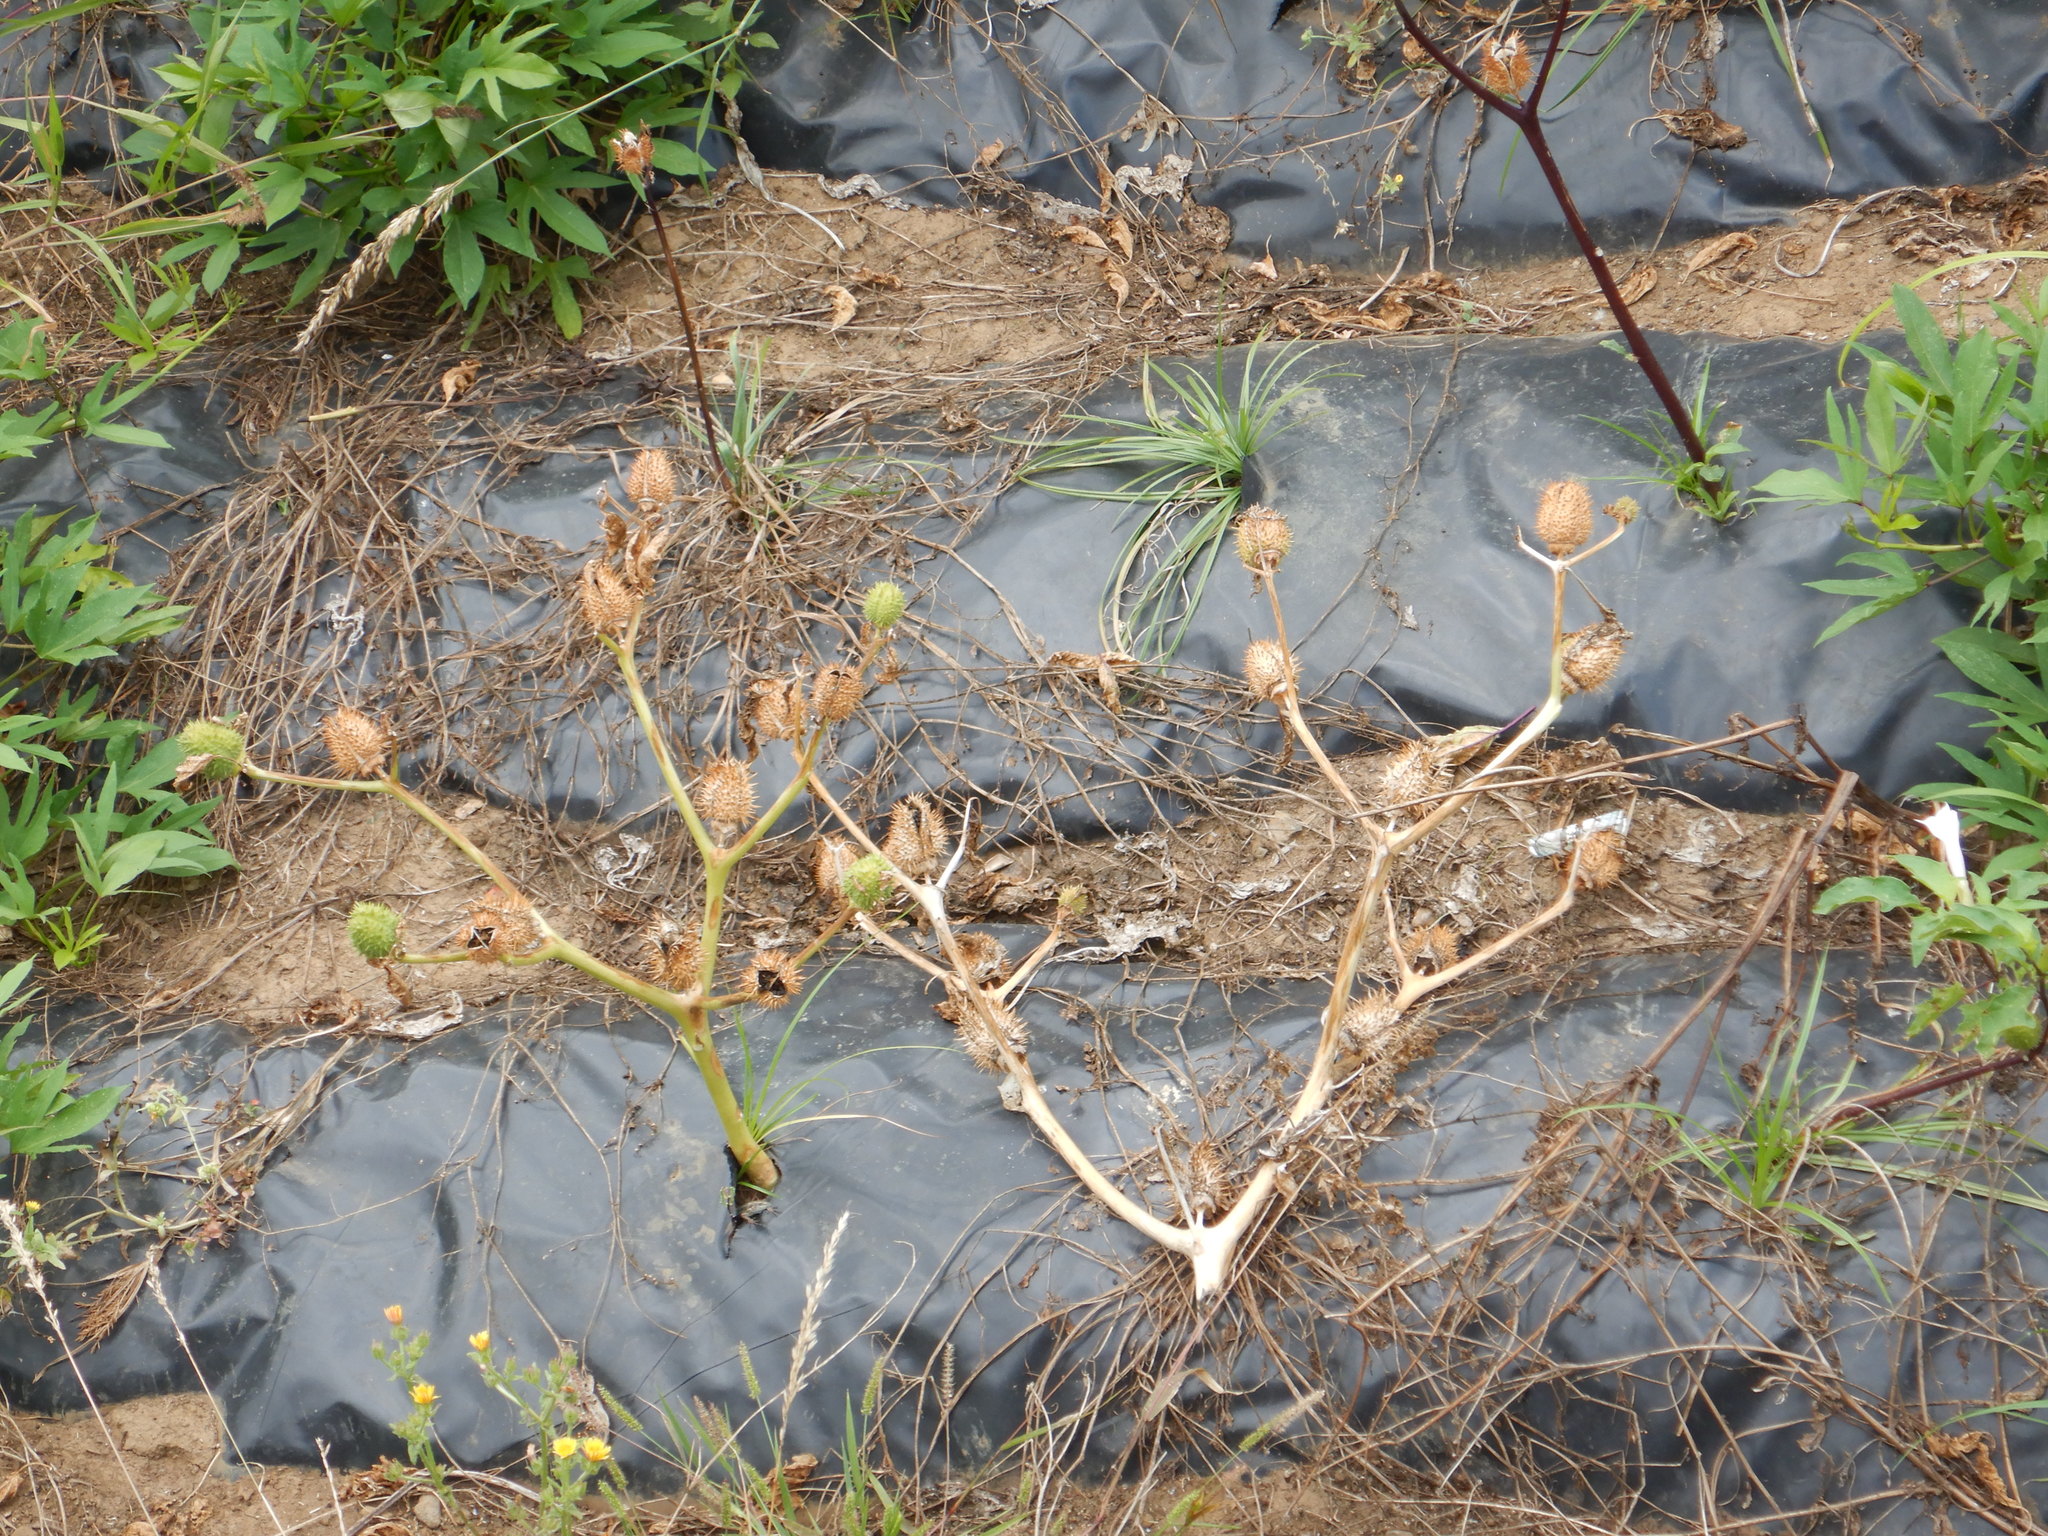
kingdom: Plantae
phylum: Tracheophyta
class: Magnoliopsida
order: Solanales
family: Solanaceae
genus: Datura
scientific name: Datura stramonium
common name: Thorn-apple
